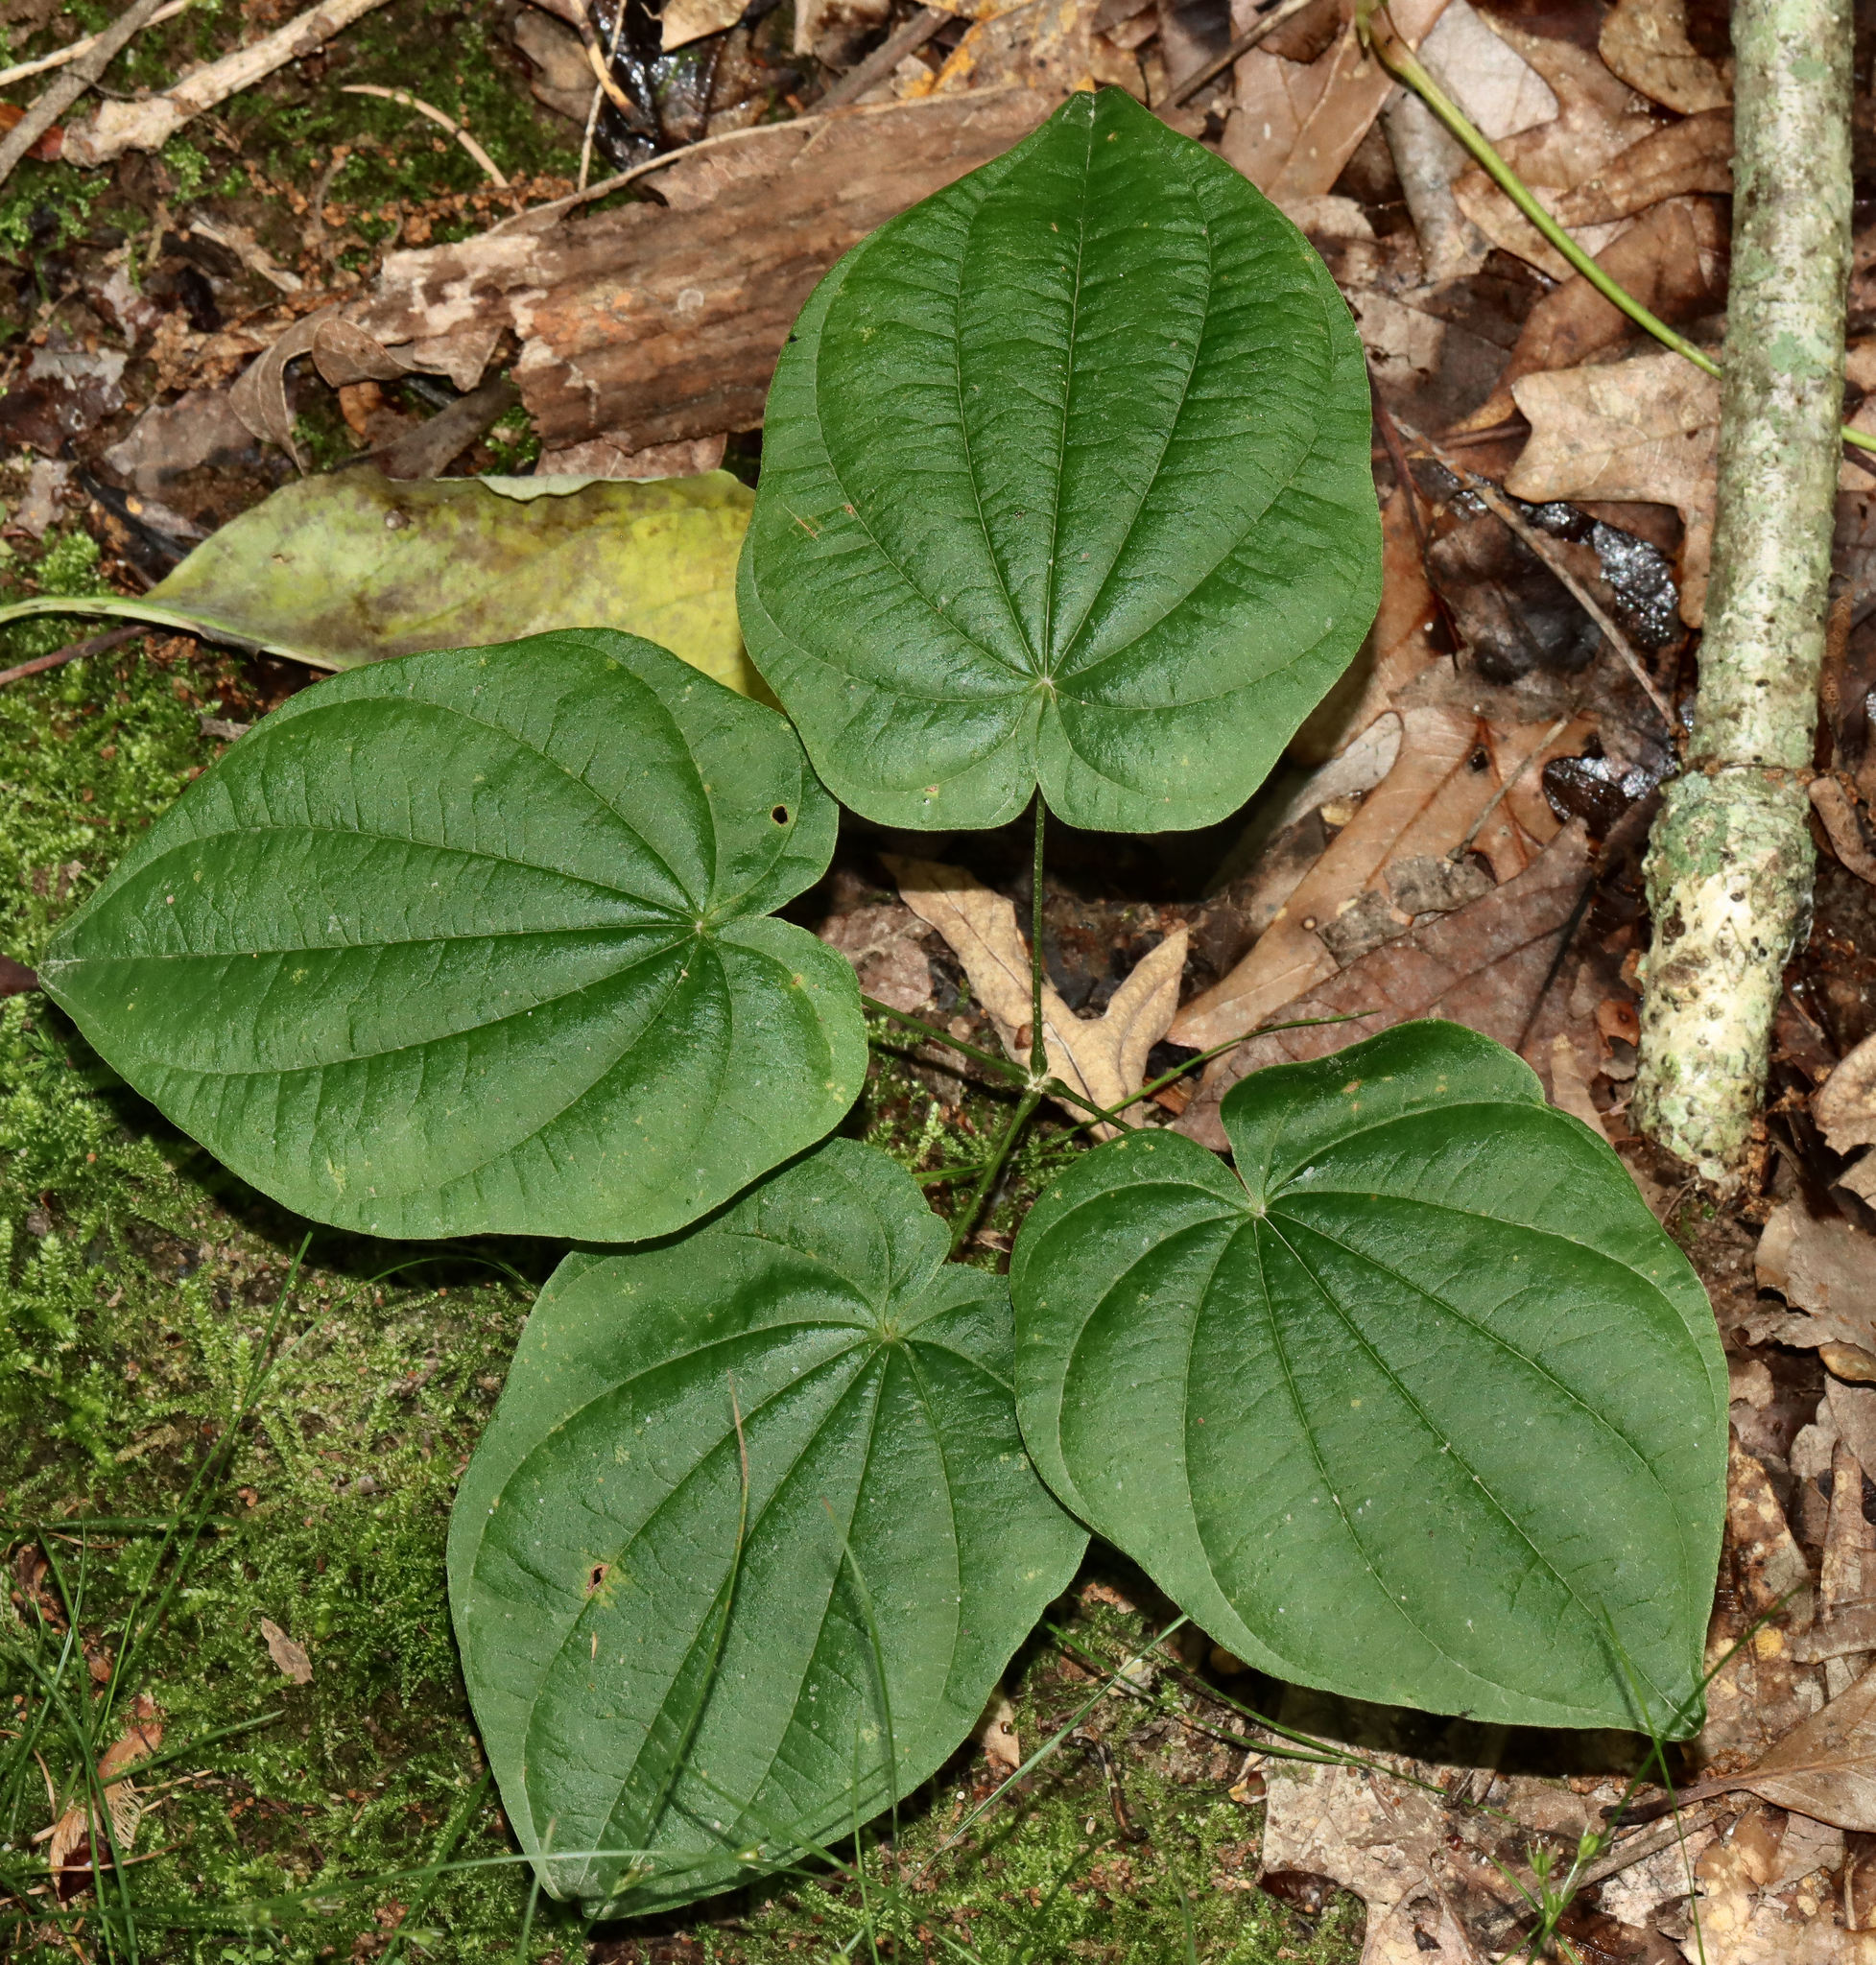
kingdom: Plantae
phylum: Tracheophyta
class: Liliopsida
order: Dioscoreales
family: Dioscoreaceae
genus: Dioscorea
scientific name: Dioscorea villosa
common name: Wild yam
